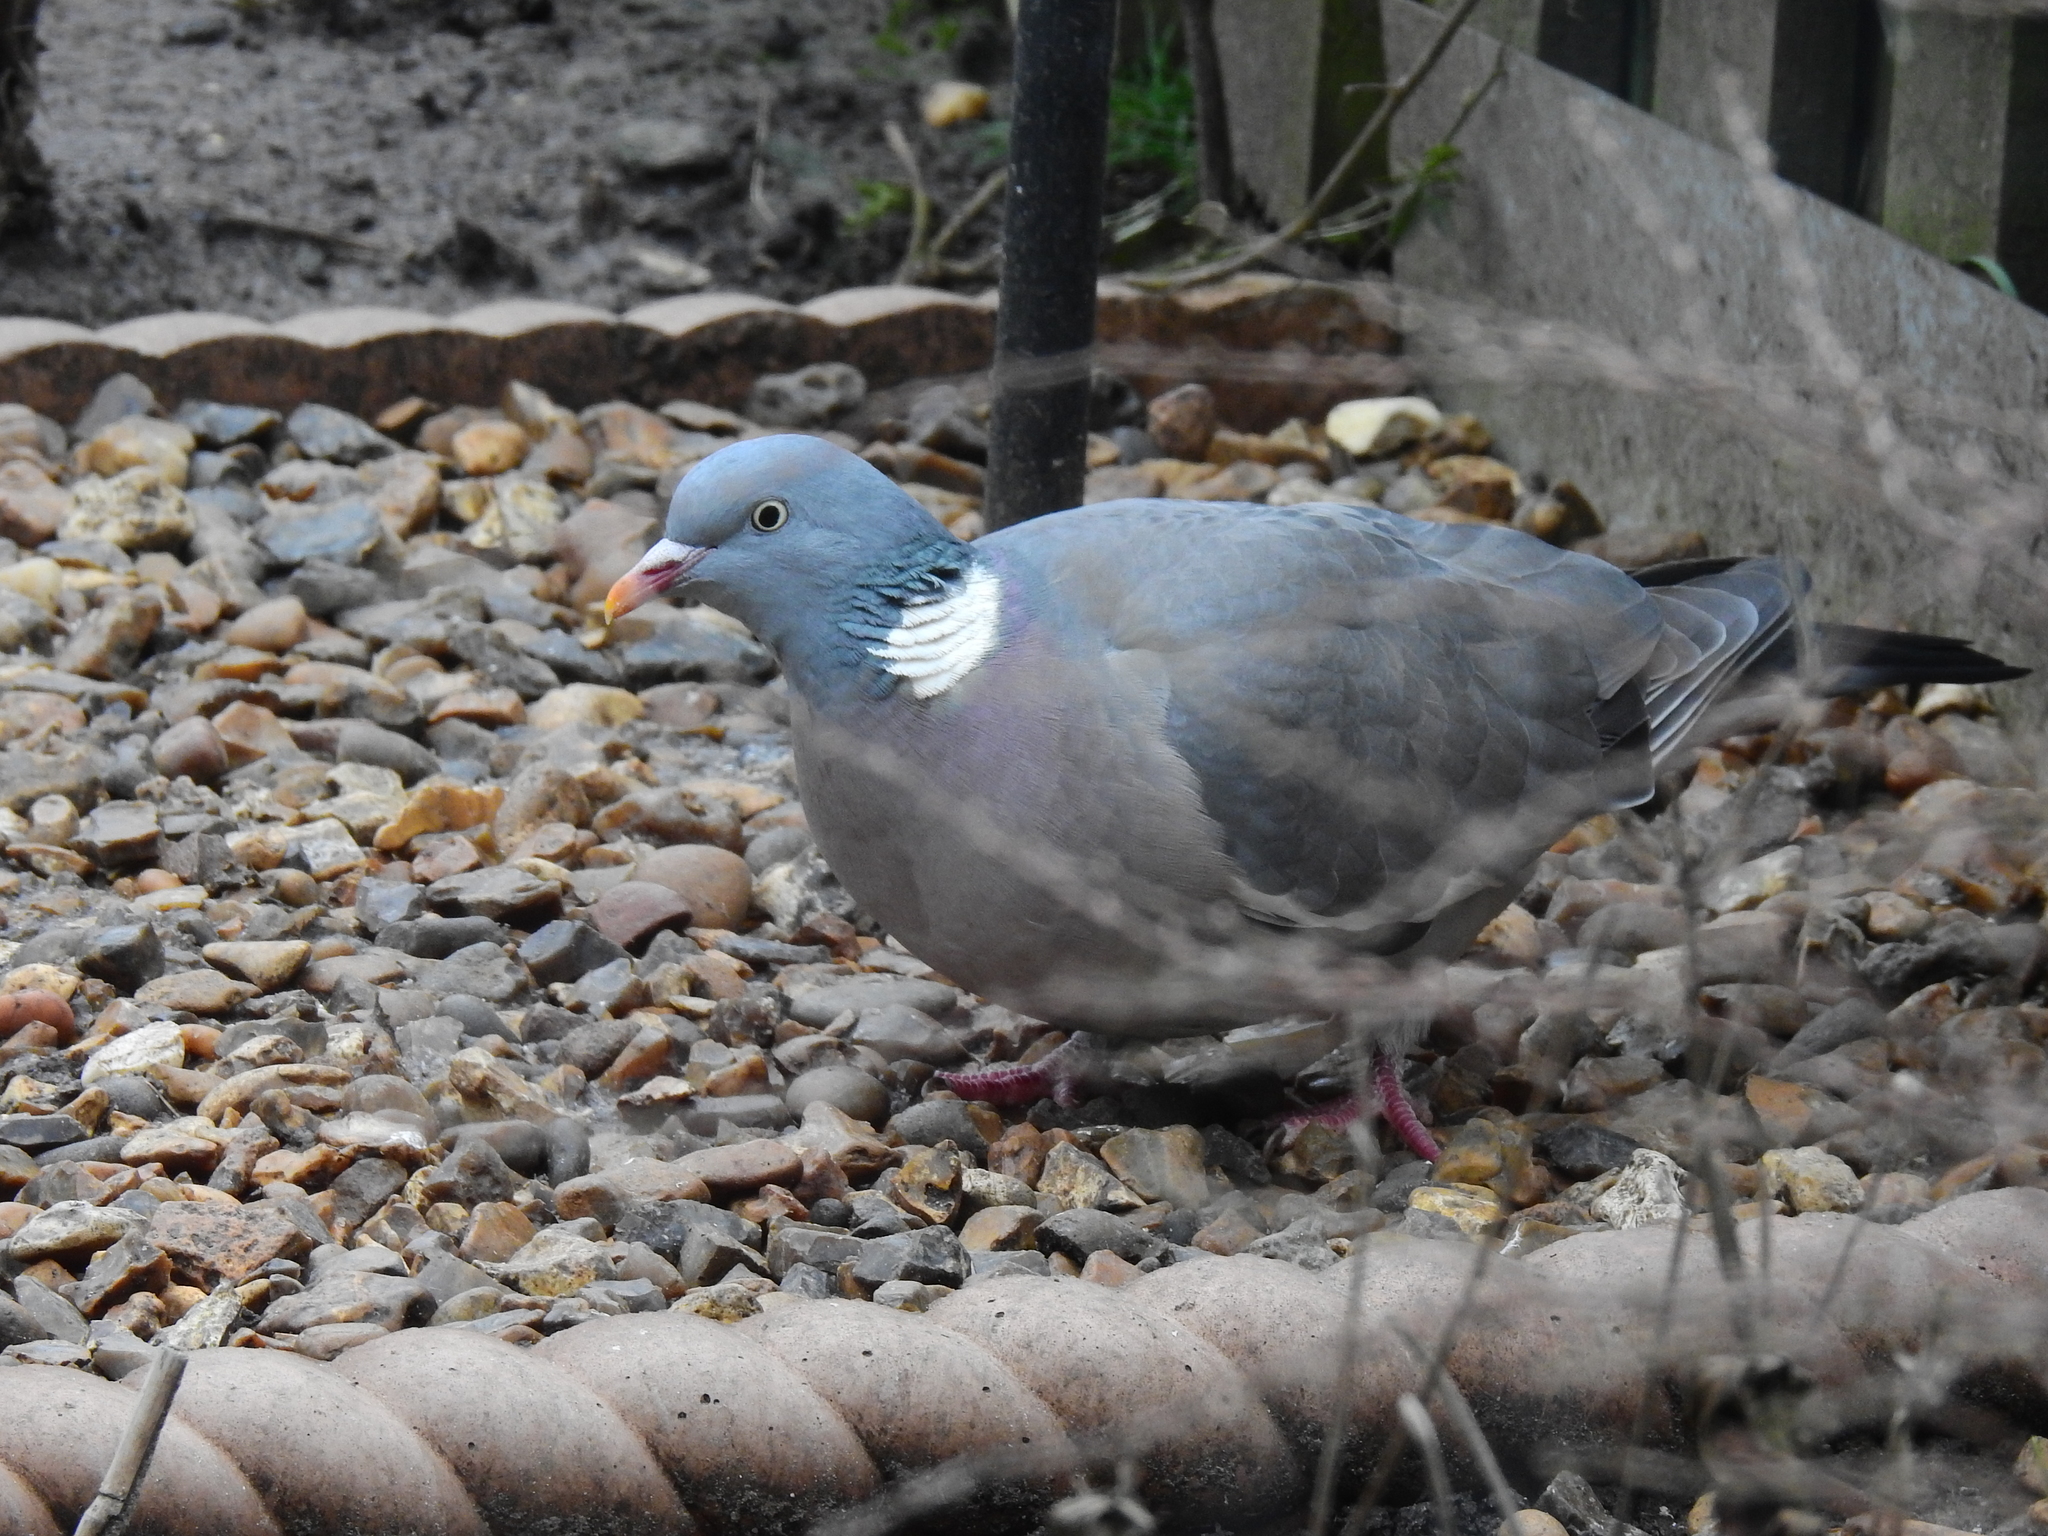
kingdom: Animalia
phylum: Chordata
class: Aves
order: Columbiformes
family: Columbidae
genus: Columba
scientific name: Columba palumbus
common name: Common wood pigeon
